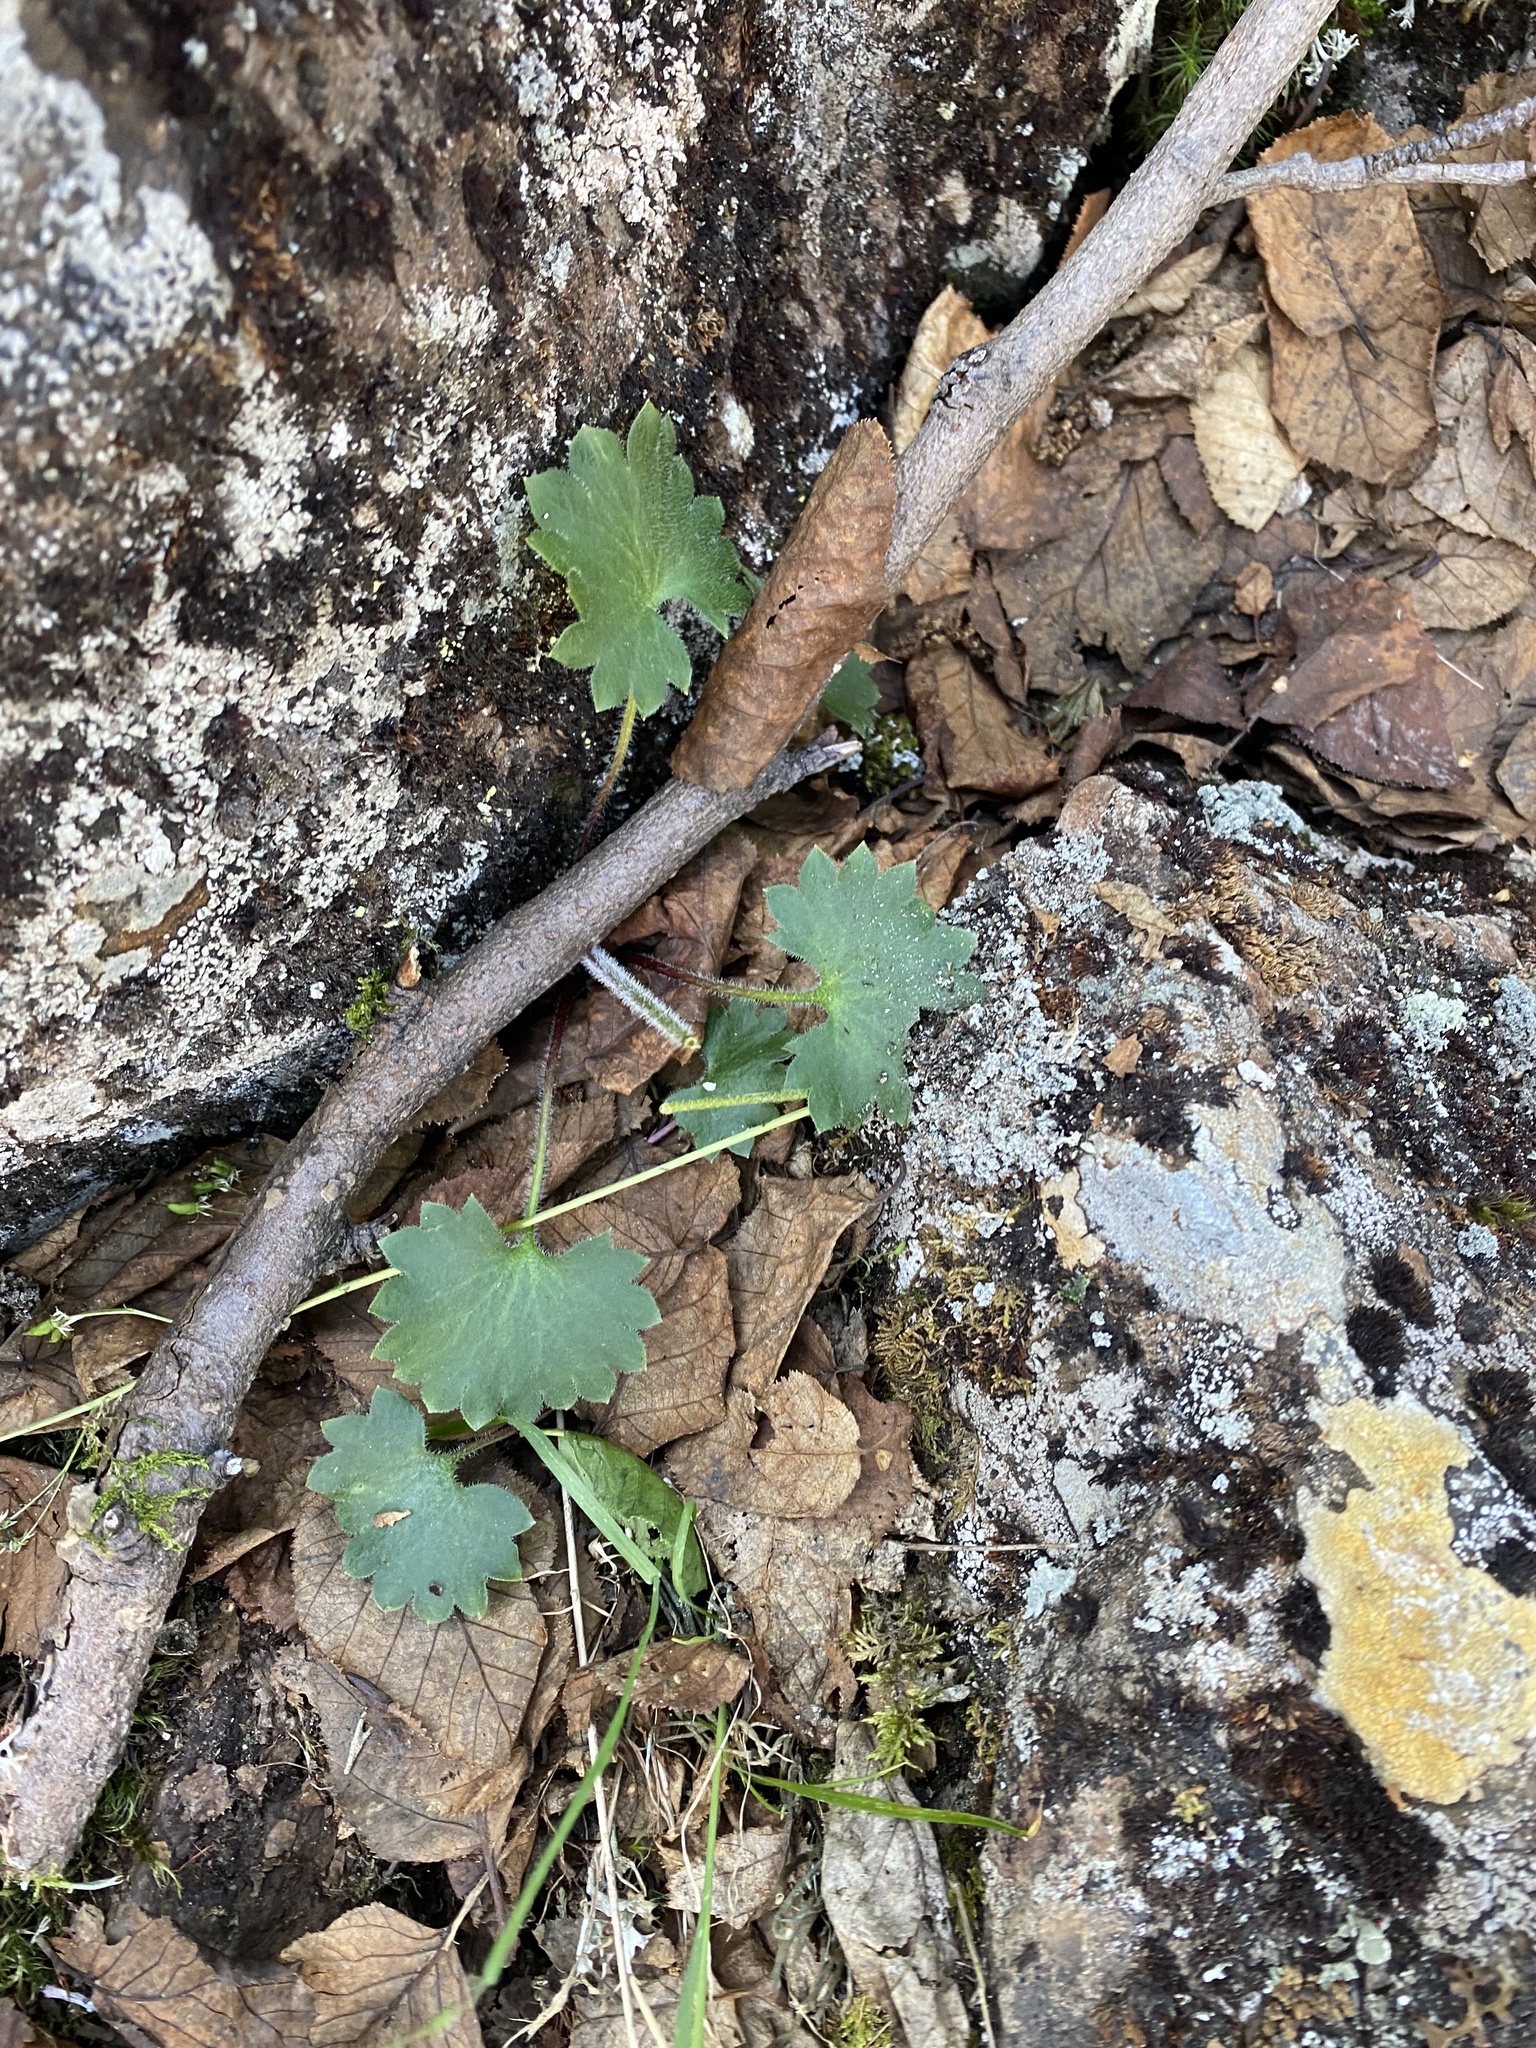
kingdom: Plantae
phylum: Tracheophyta
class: Magnoliopsida
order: Saxifragales
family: Saxifragaceae
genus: Micranthes
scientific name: Micranthes nelsoniana
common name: Nelson's saxifrage
